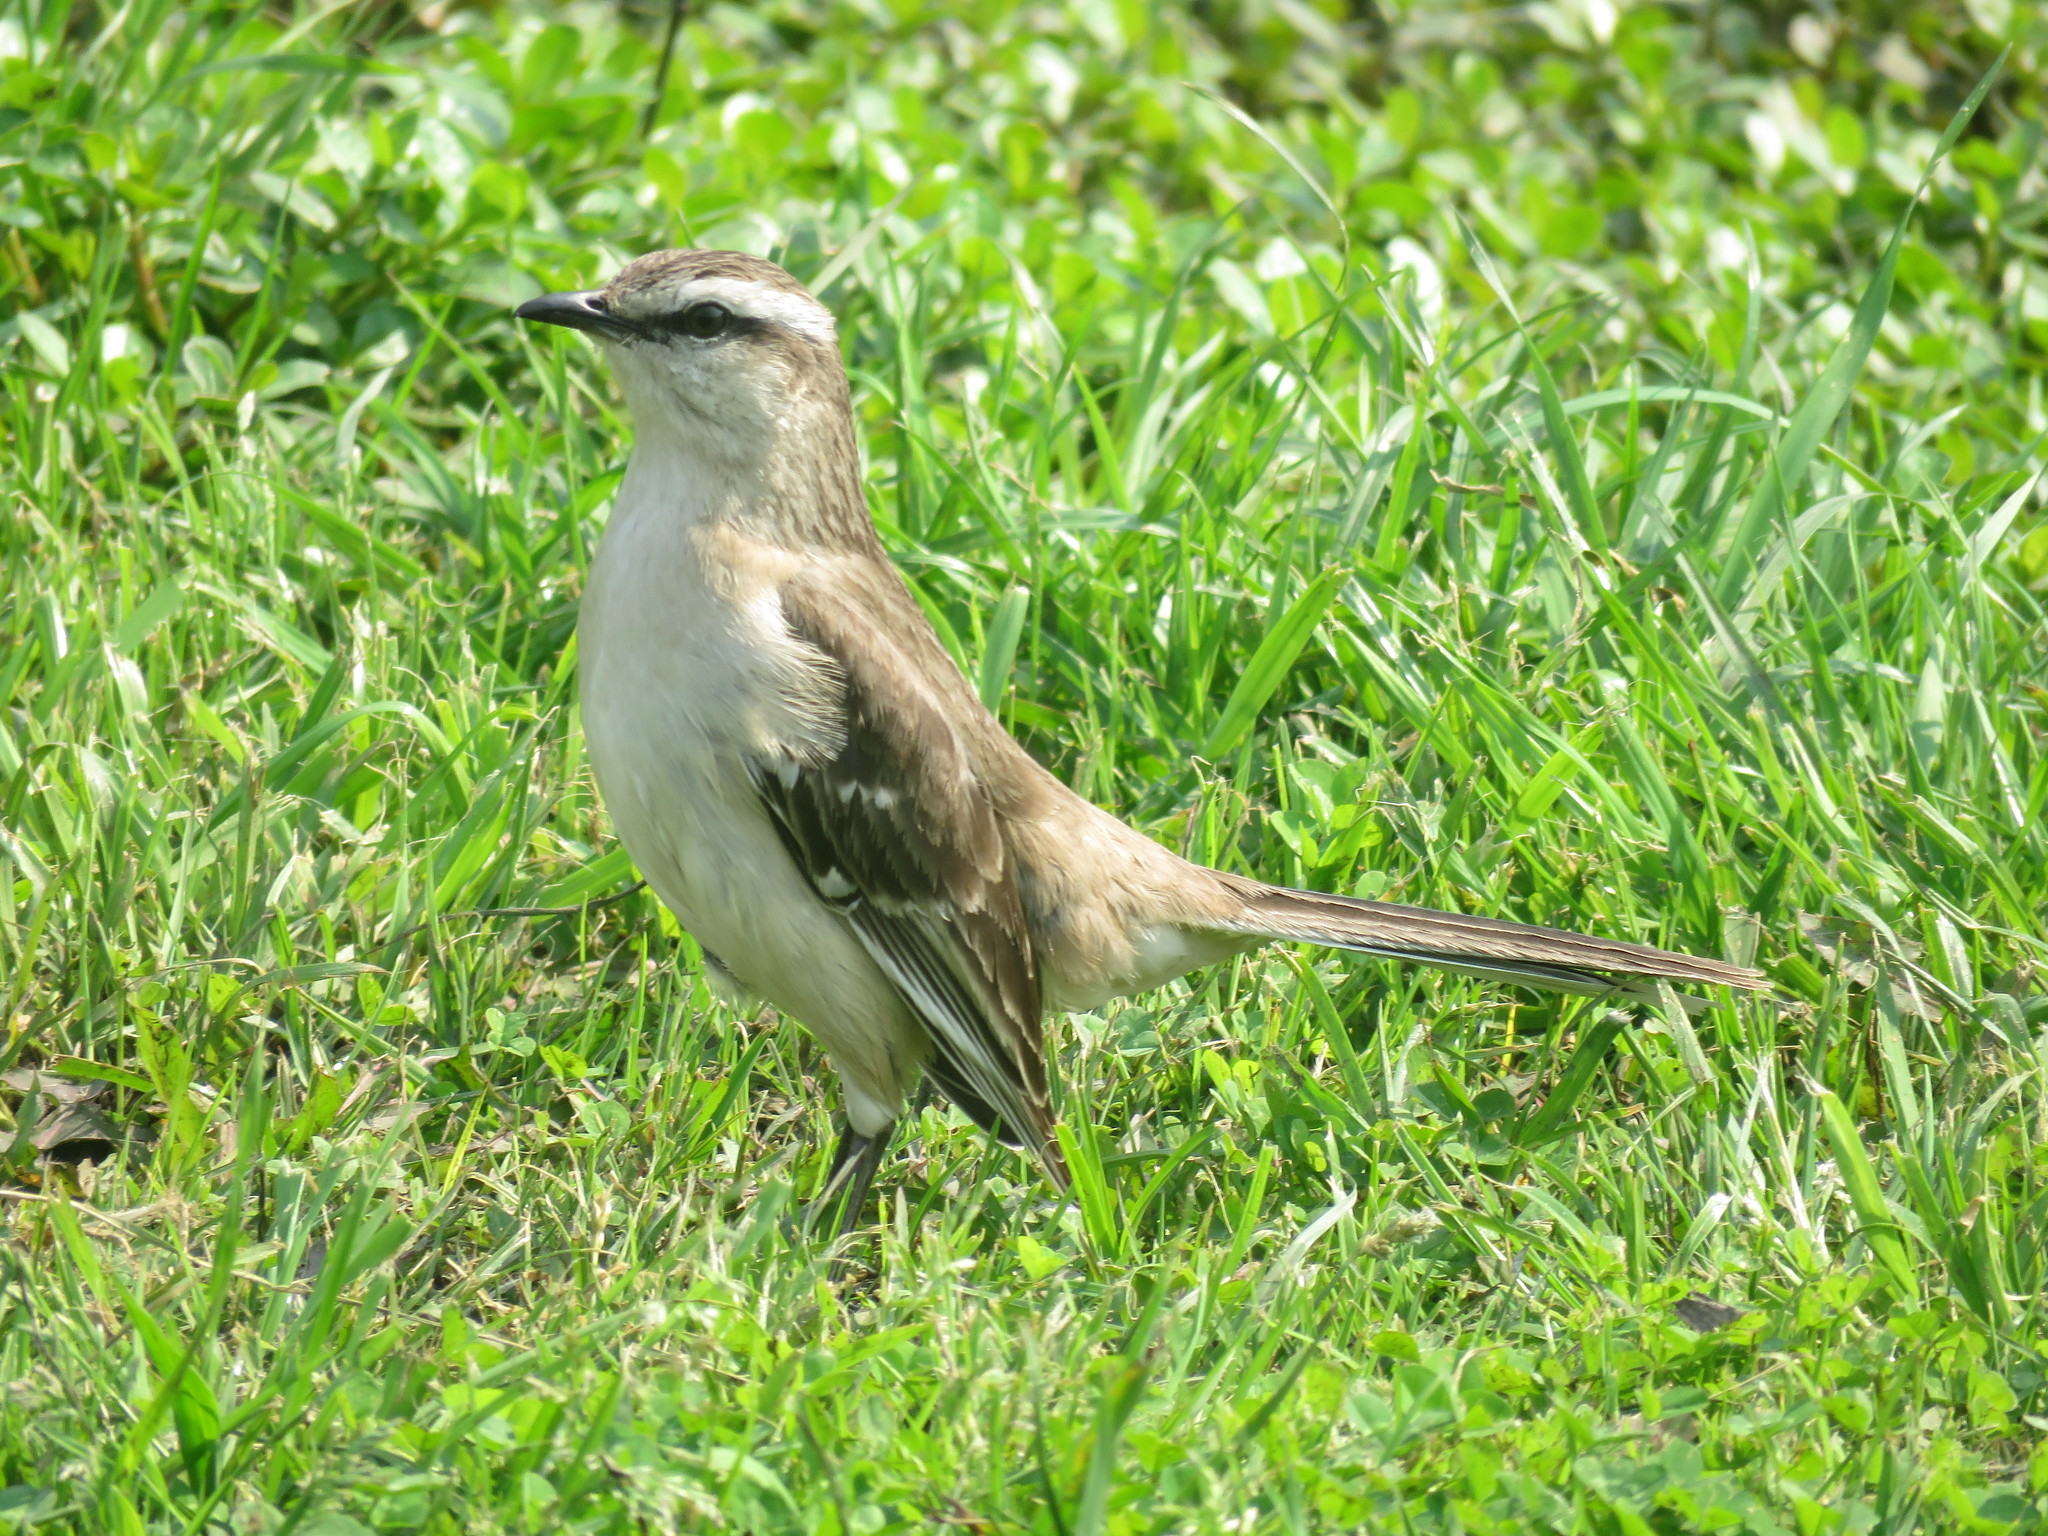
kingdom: Animalia
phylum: Chordata
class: Aves
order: Passeriformes
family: Mimidae
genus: Mimus
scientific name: Mimus saturninus
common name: Chalk-browed mockingbird
